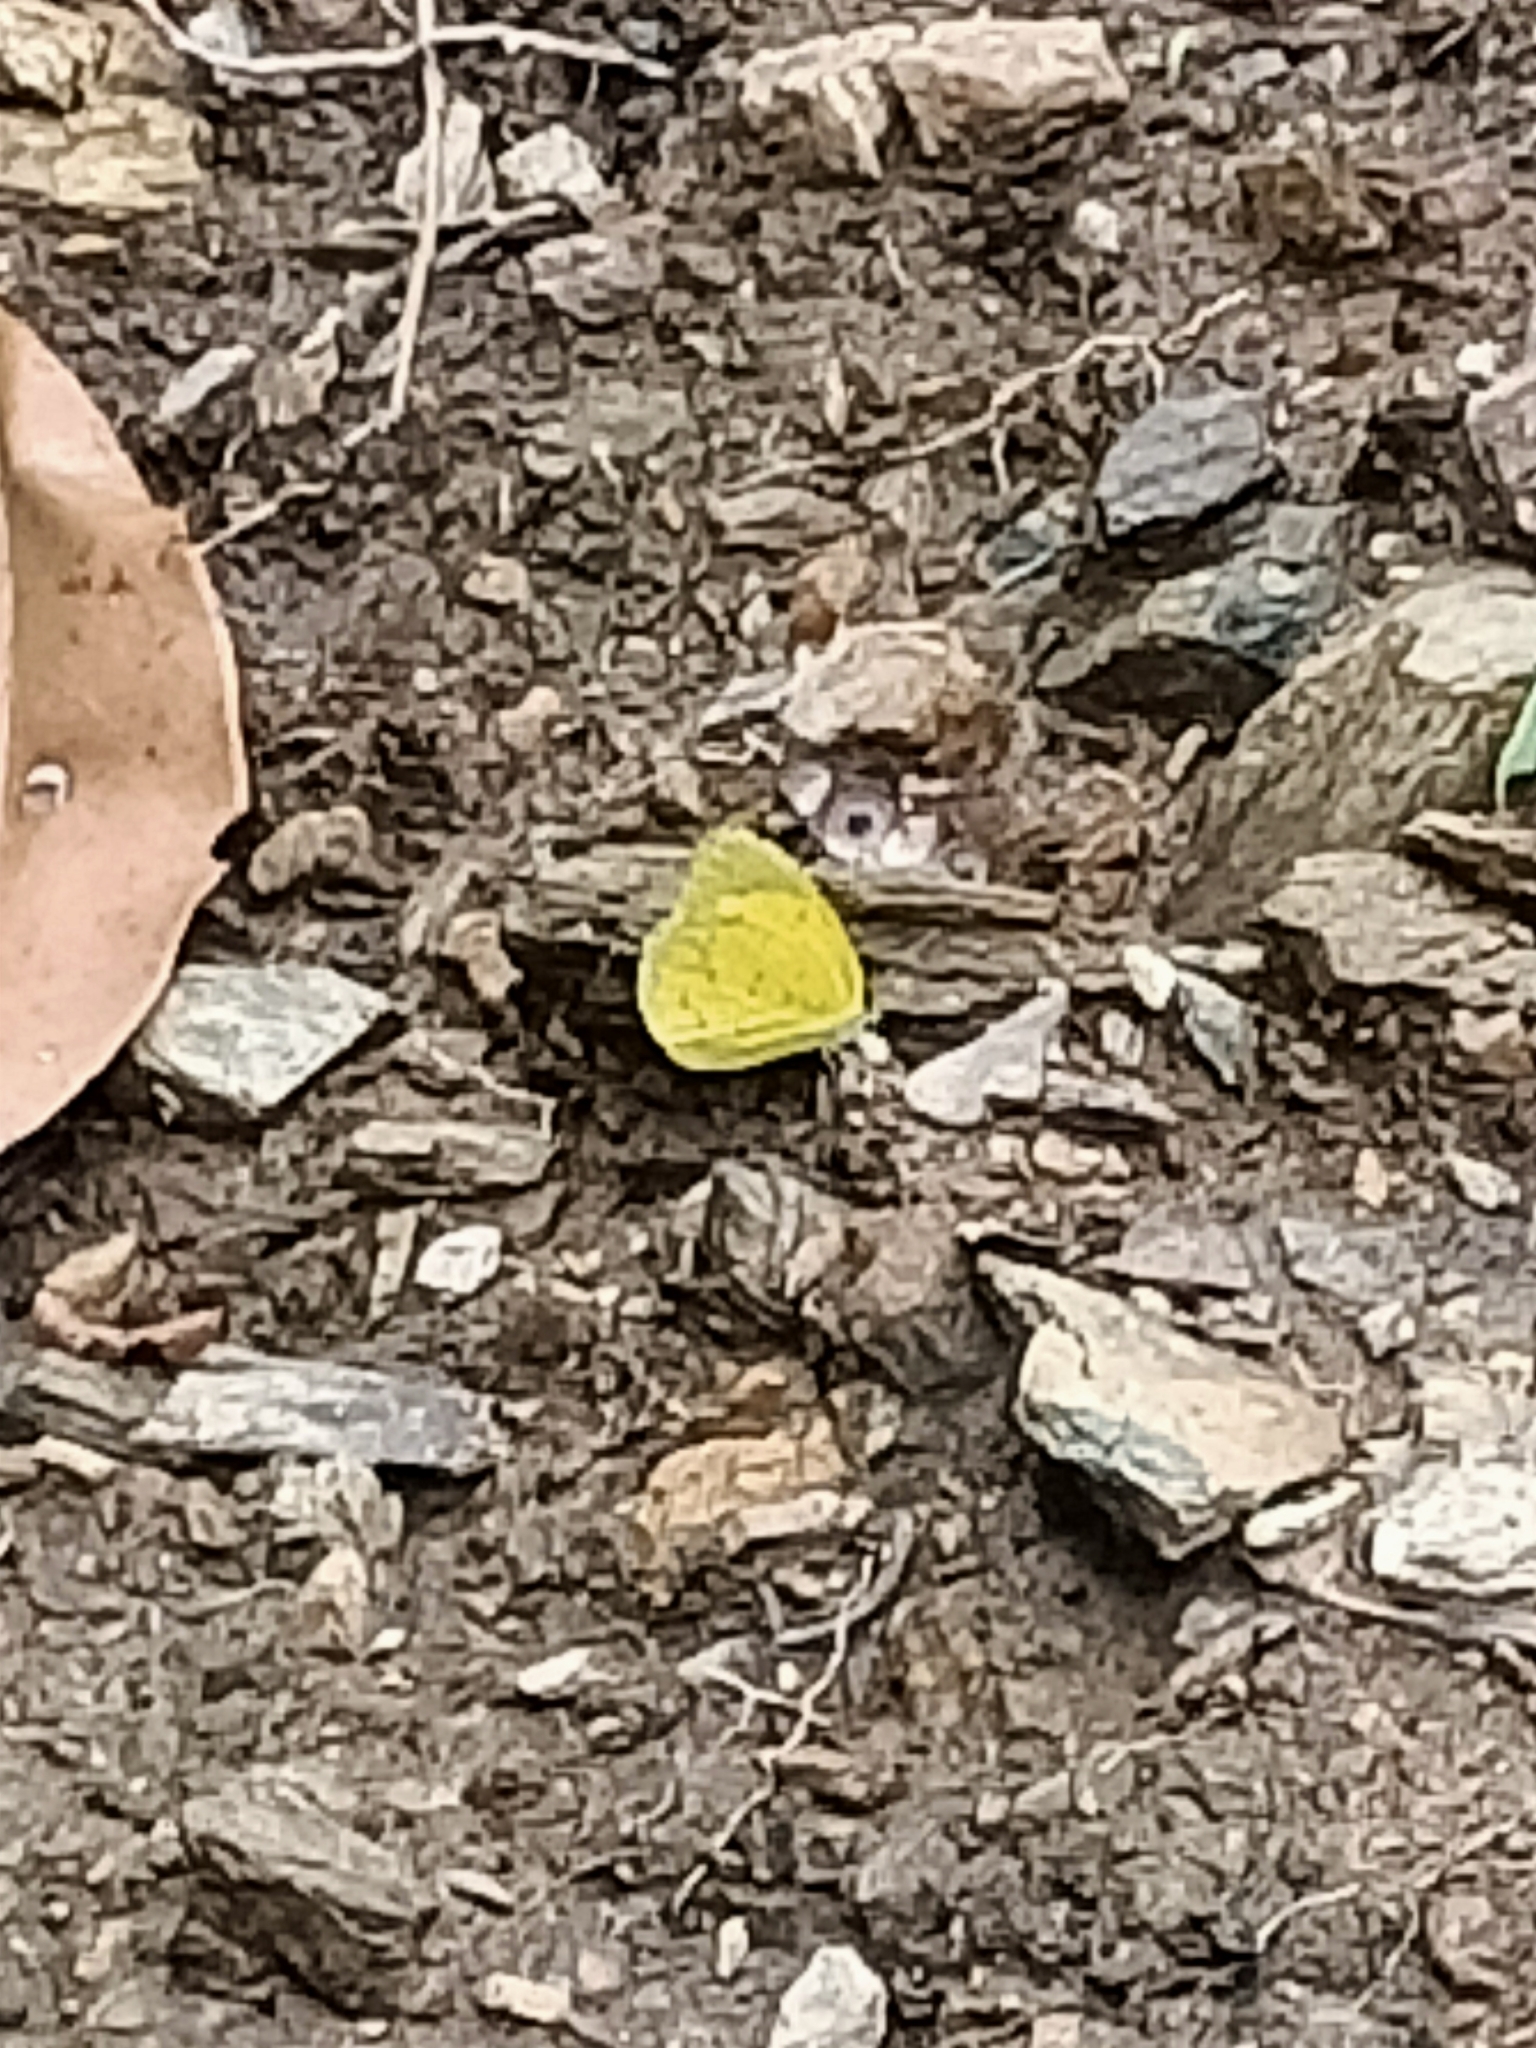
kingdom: Animalia
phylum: Arthropoda
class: Insecta
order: Lepidoptera
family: Pieridae
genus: Eurema
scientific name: Eurema smilax
